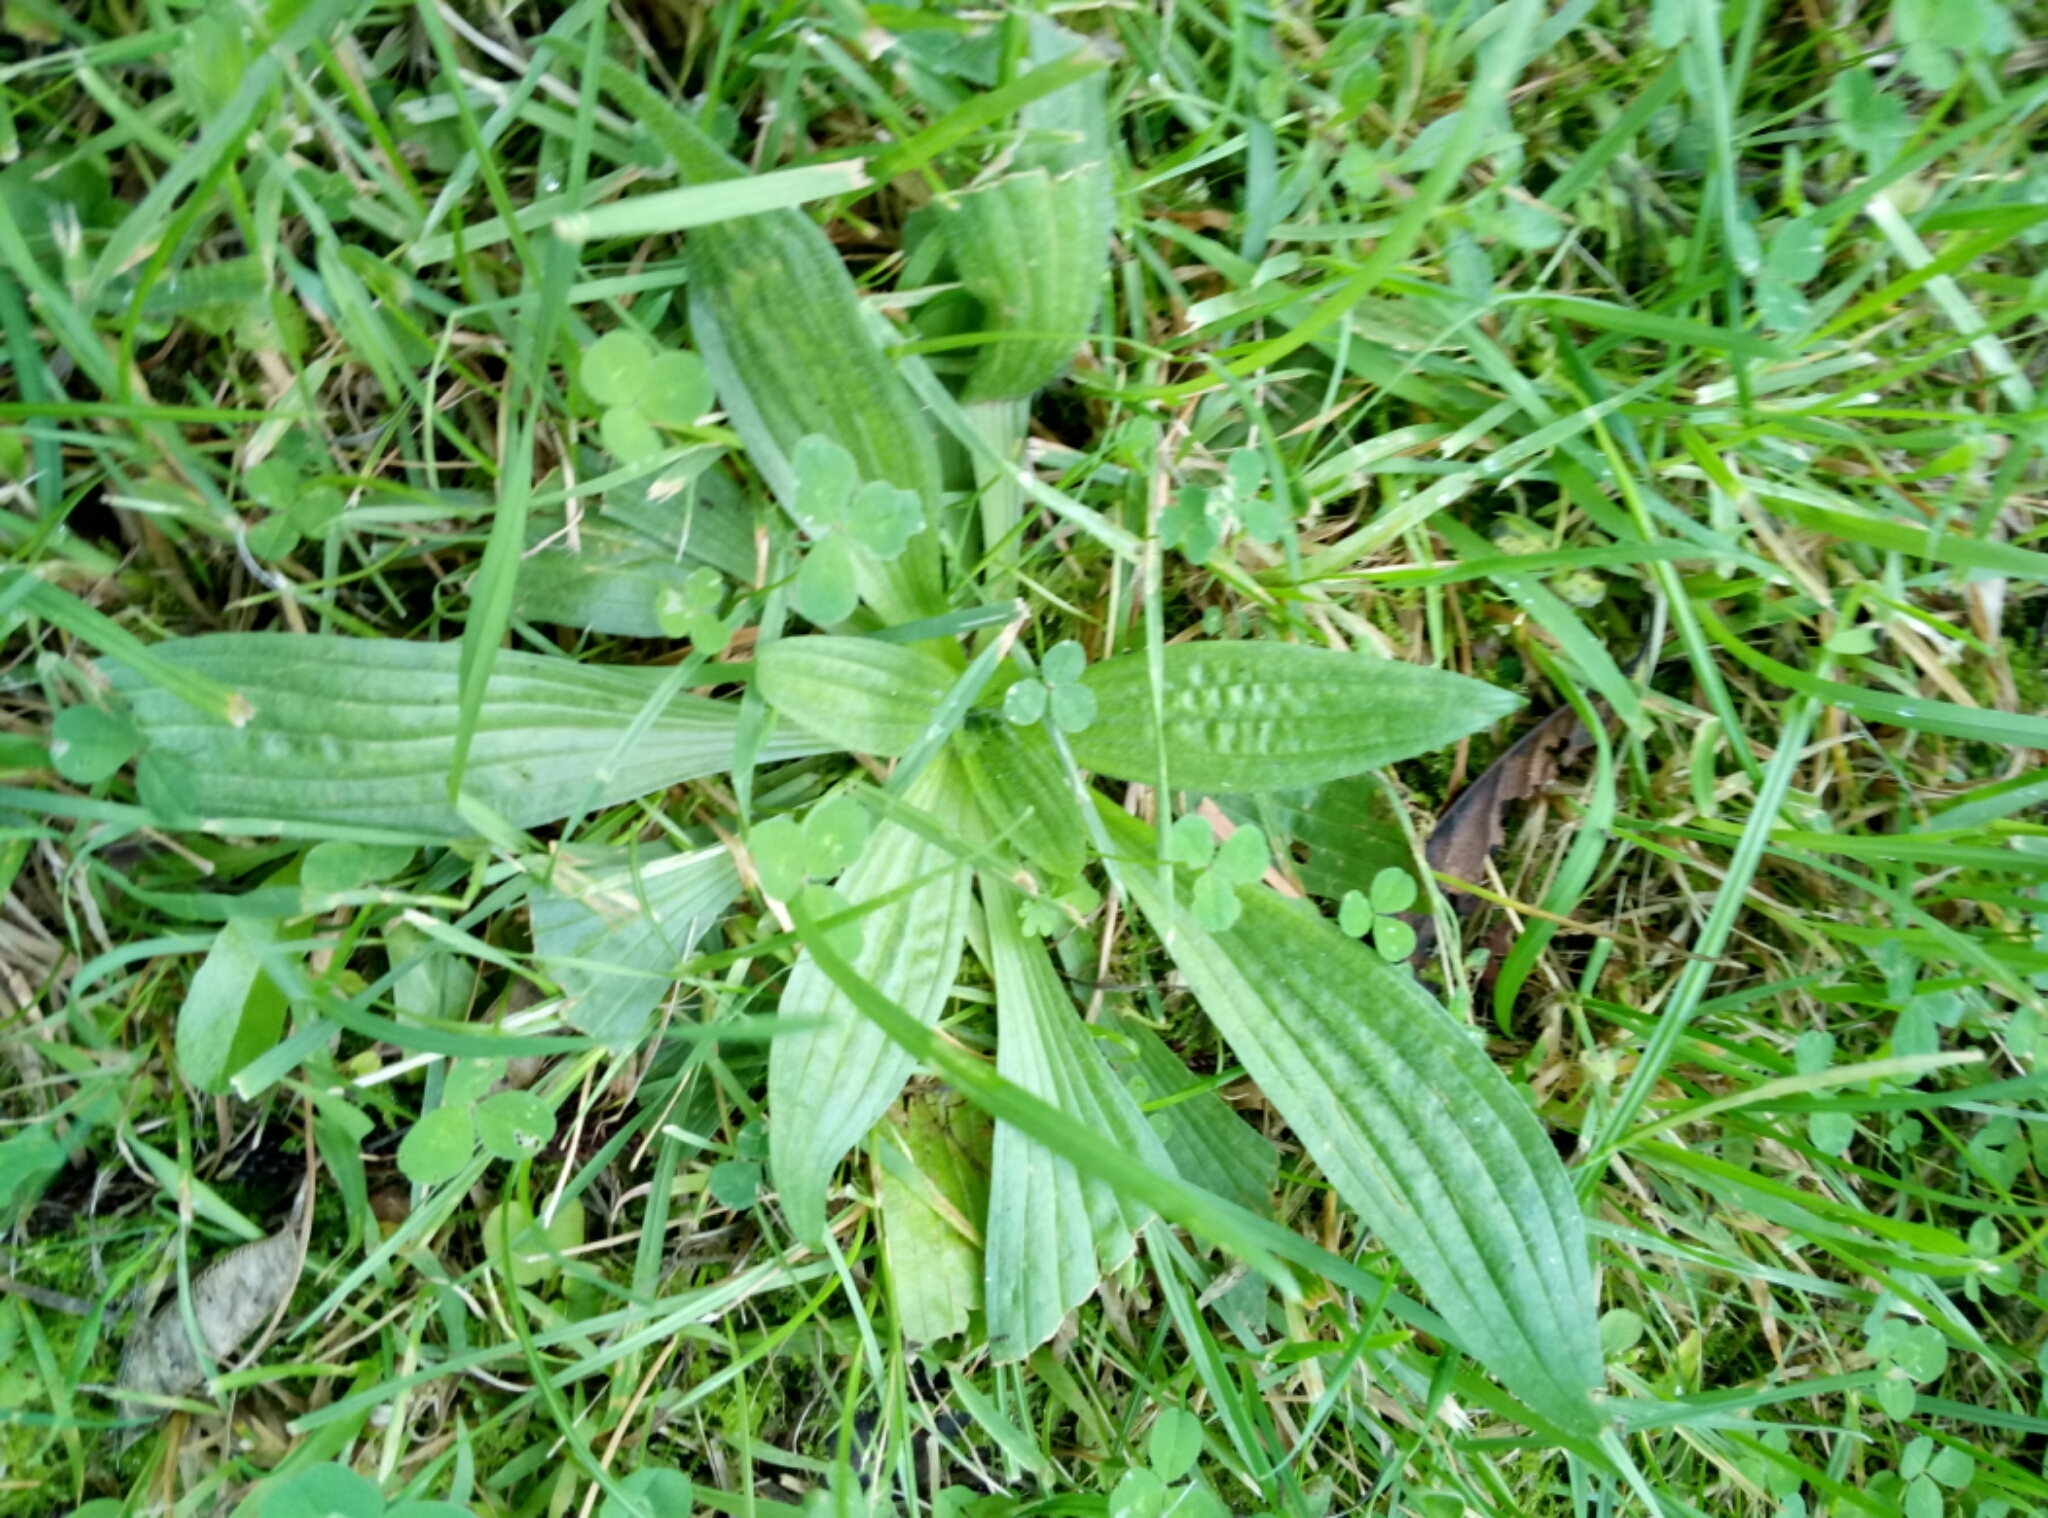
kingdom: Plantae
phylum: Tracheophyta
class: Magnoliopsida
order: Lamiales
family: Plantaginaceae
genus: Plantago
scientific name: Plantago lanceolata
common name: Ribwort plantain
